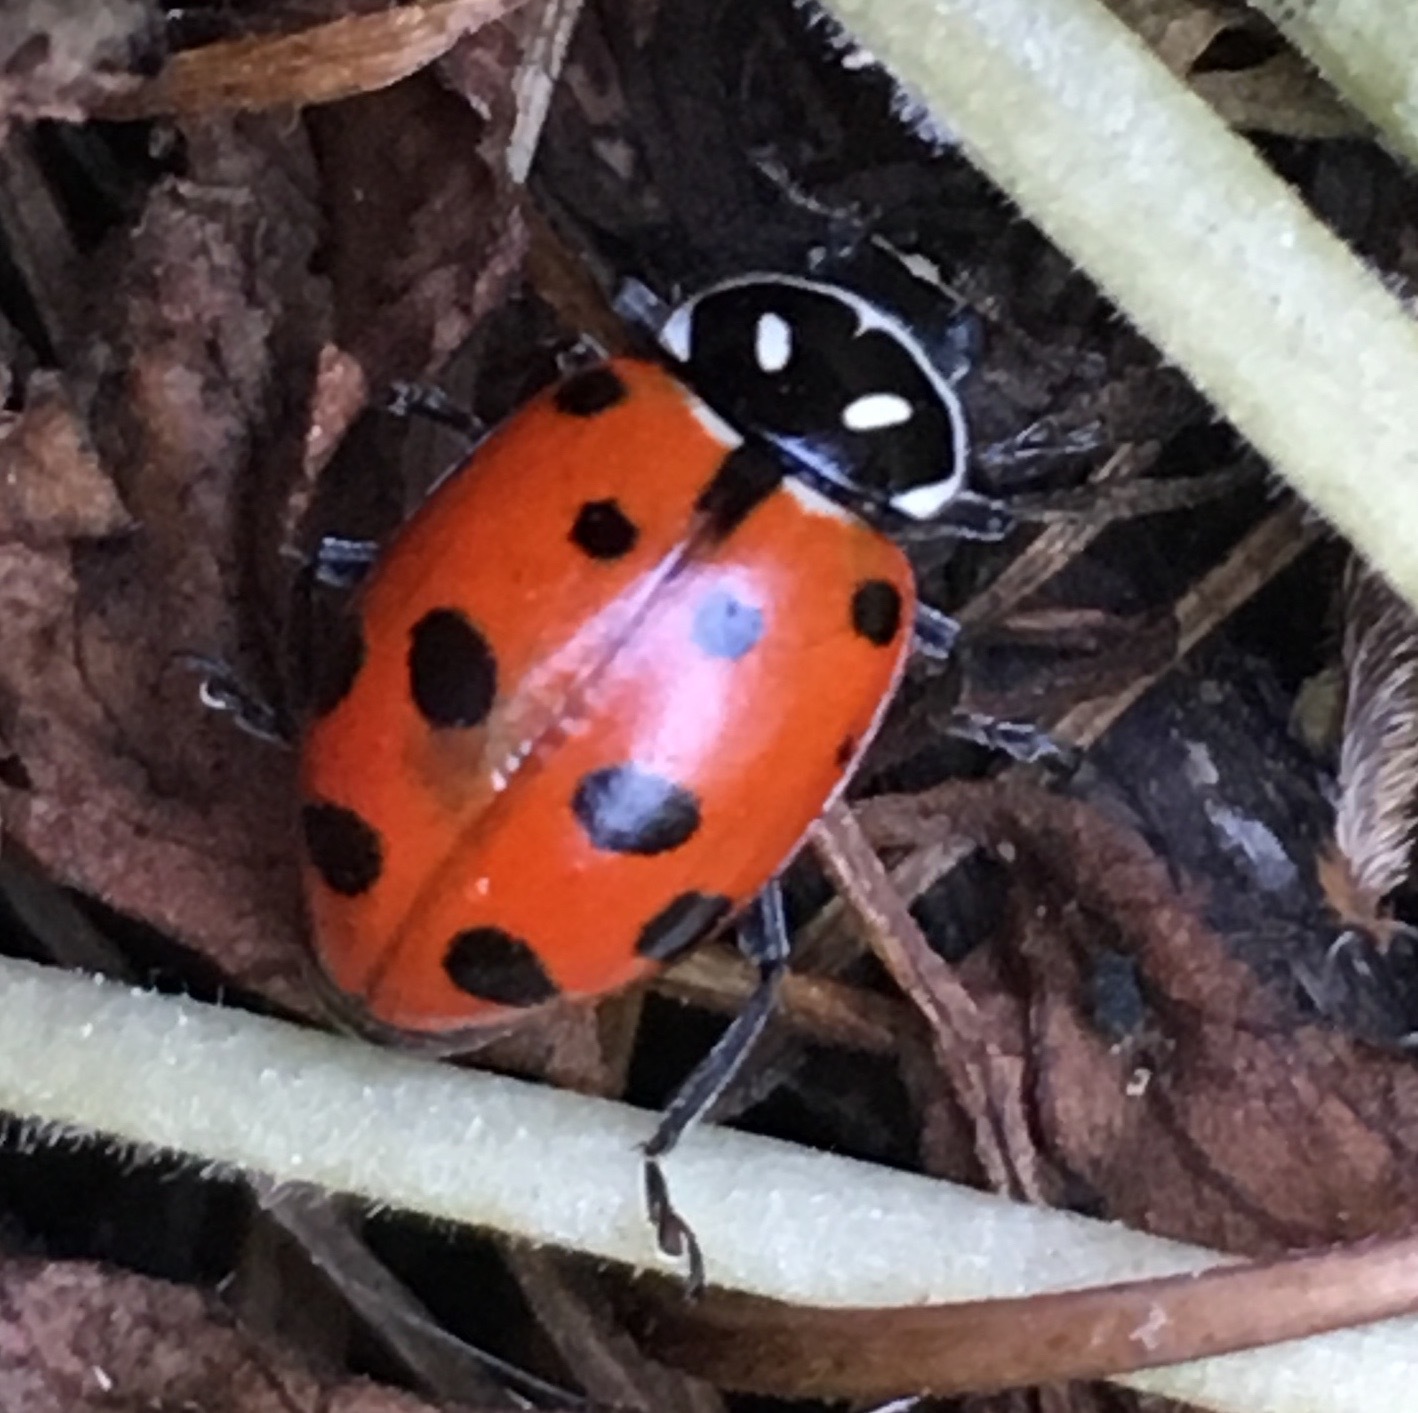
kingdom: Animalia
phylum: Arthropoda
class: Insecta
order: Coleoptera
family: Coccinellidae
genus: Hippodamia
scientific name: Hippodamia convergens
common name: Convergent lady beetle
